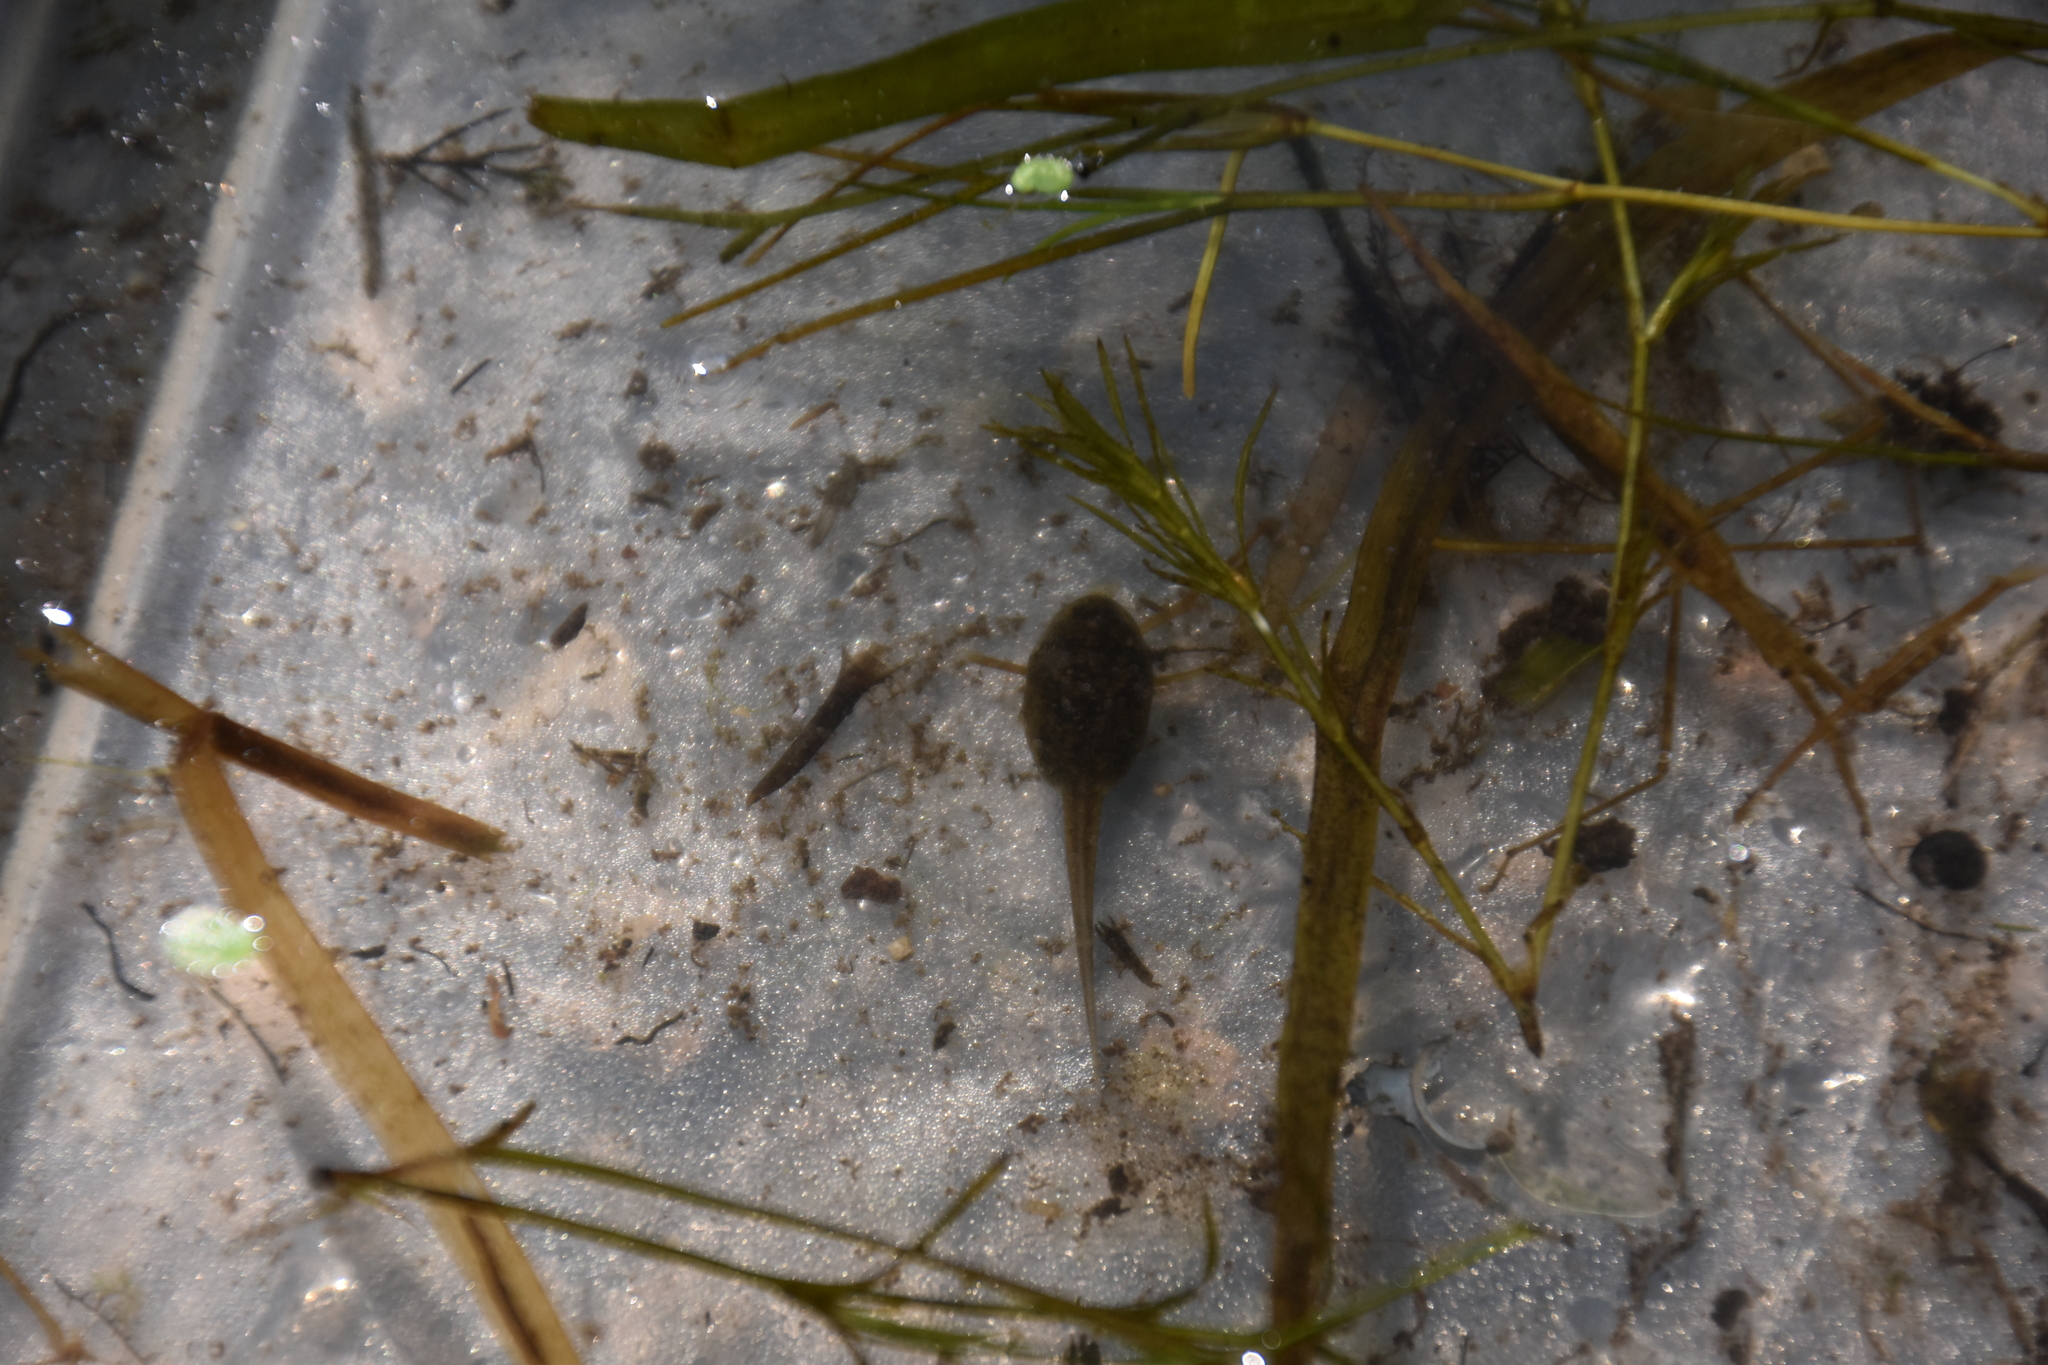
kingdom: Animalia
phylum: Chordata
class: Amphibia
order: Anura
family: Bufonidae
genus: Anaxyrus
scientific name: Anaxyrus americanus
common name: American toad
